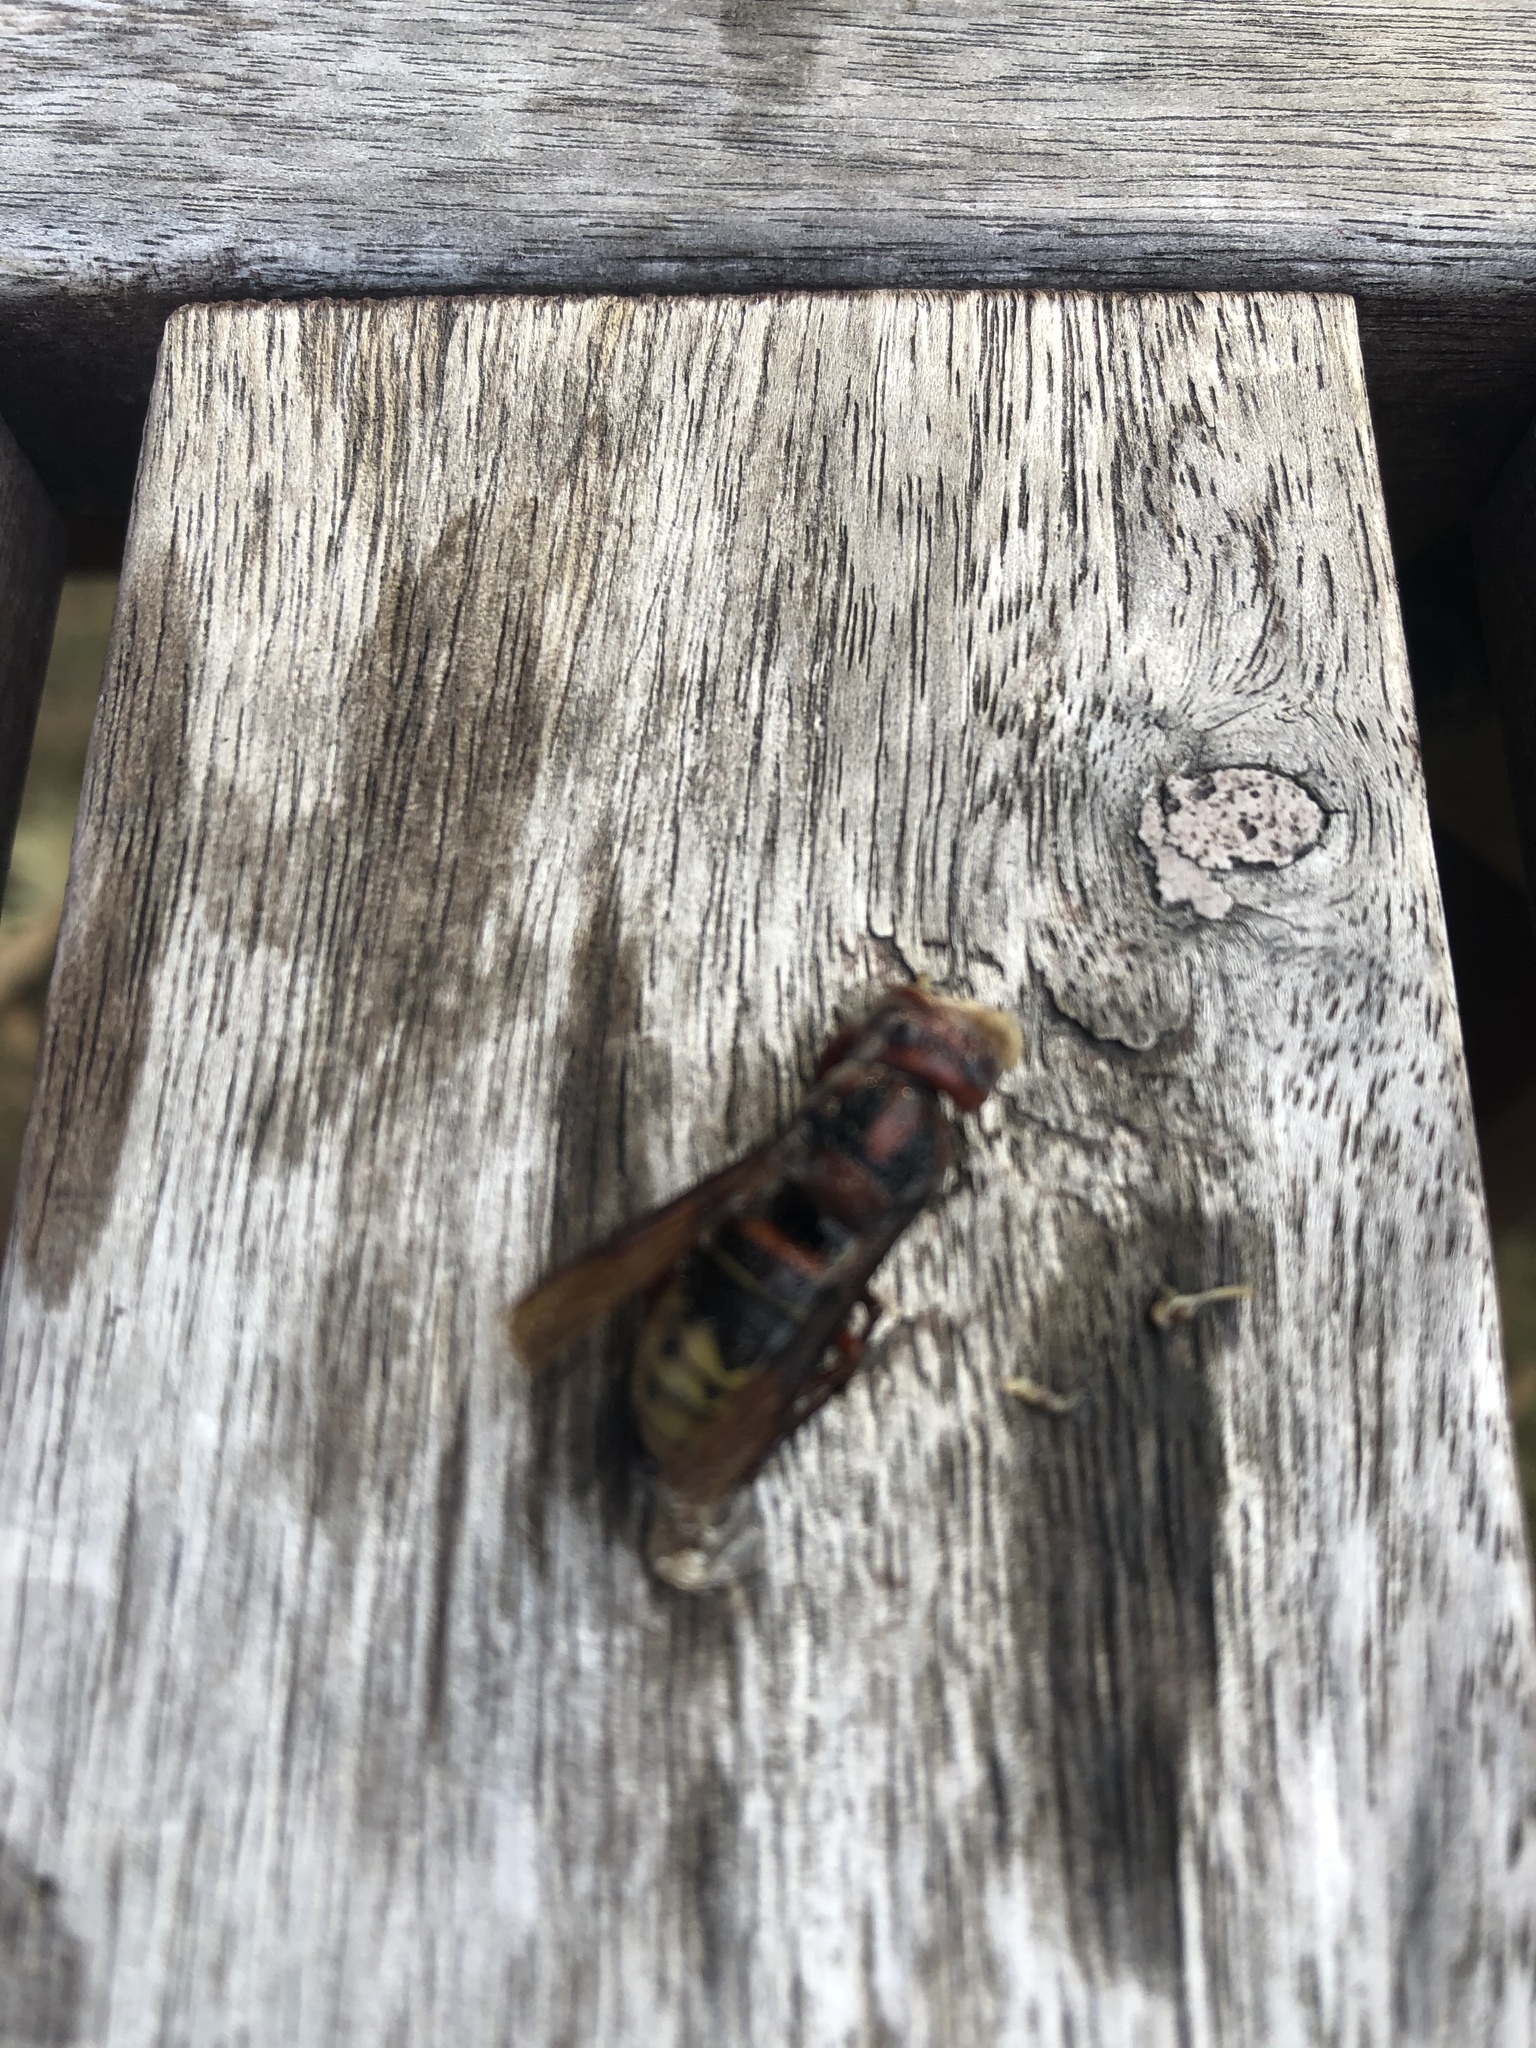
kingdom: Animalia
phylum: Arthropoda
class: Insecta
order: Hymenoptera
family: Vespidae
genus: Vespa
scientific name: Vespa crabro
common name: Hornet
